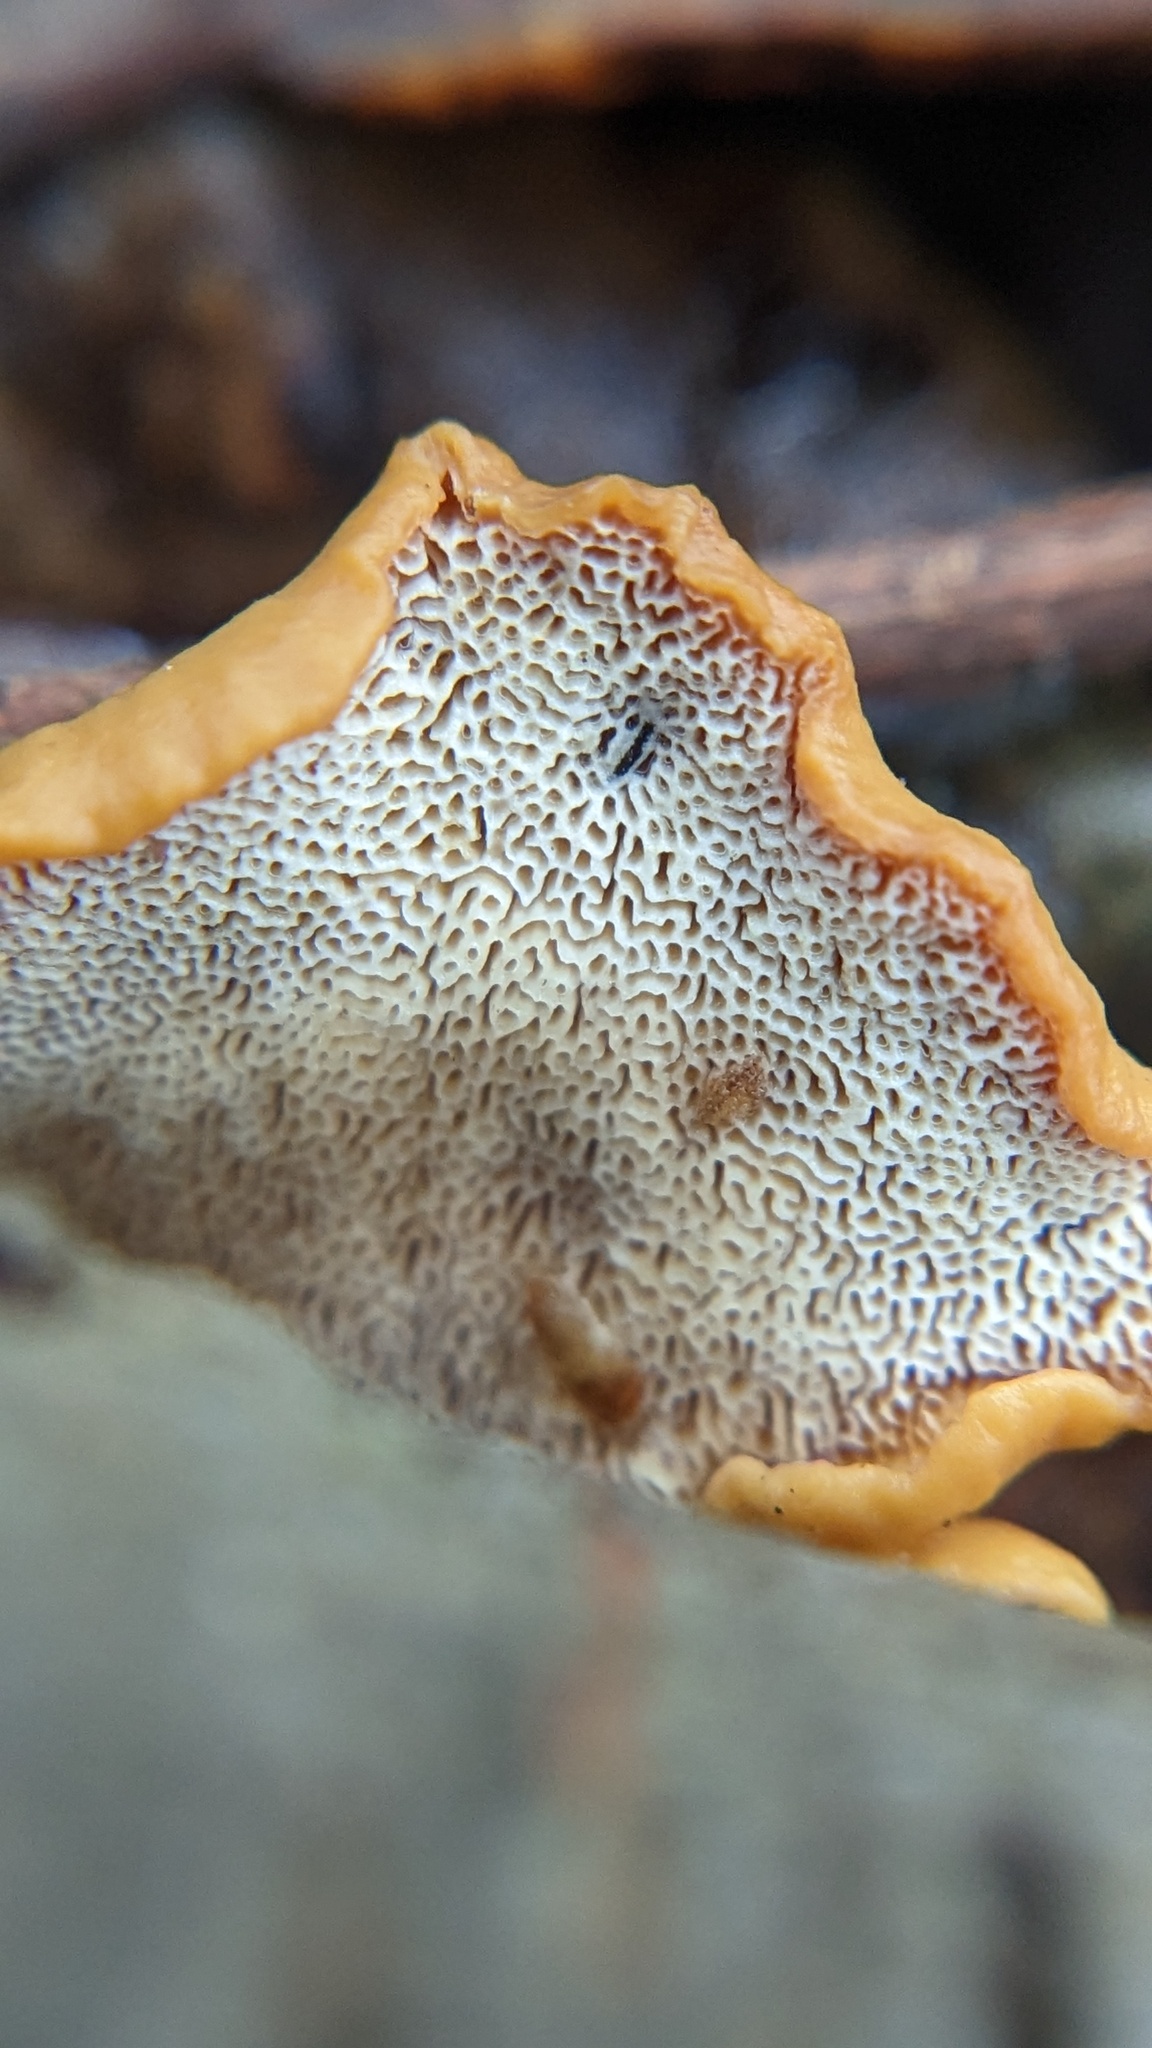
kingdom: Fungi
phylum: Basidiomycota
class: Agaricomycetes
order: Polyporales
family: Polyporaceae
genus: Cerioporus
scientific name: Cerioporus leptocephalus
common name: Blackfoot polypore
